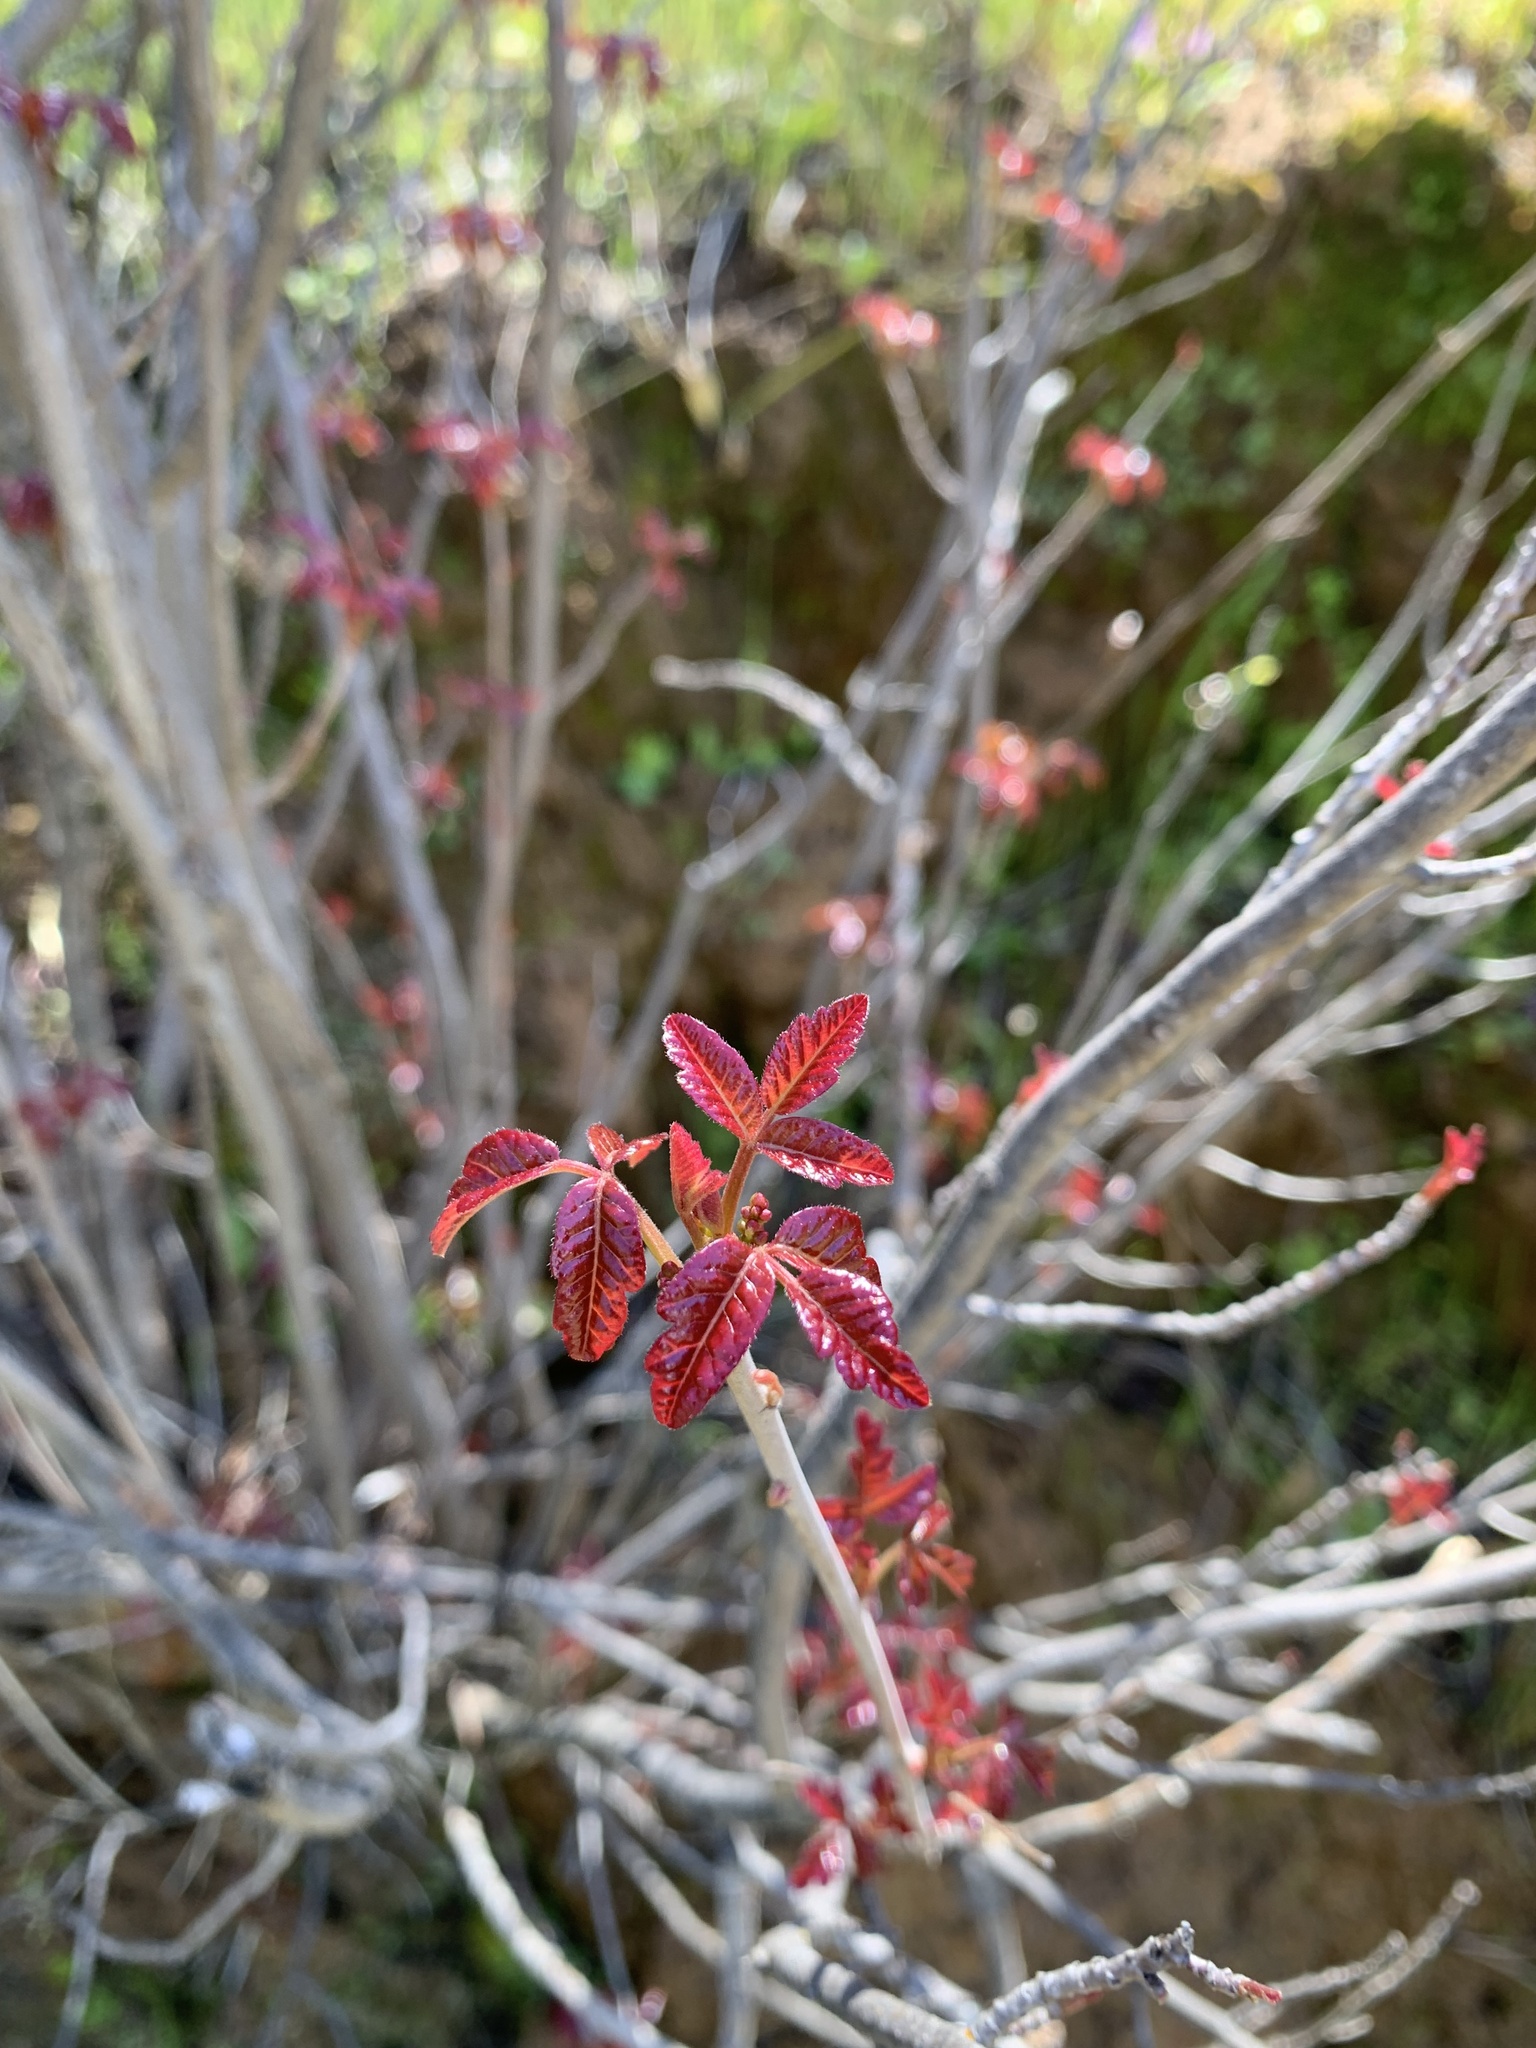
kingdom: Plantae
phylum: Tracheophyta
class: Magnoliopsida
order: Sapindales
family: Anacardiaceae
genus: Toxicodendron
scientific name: Toxicodendron diversilobum
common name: Pacific poison-oak
